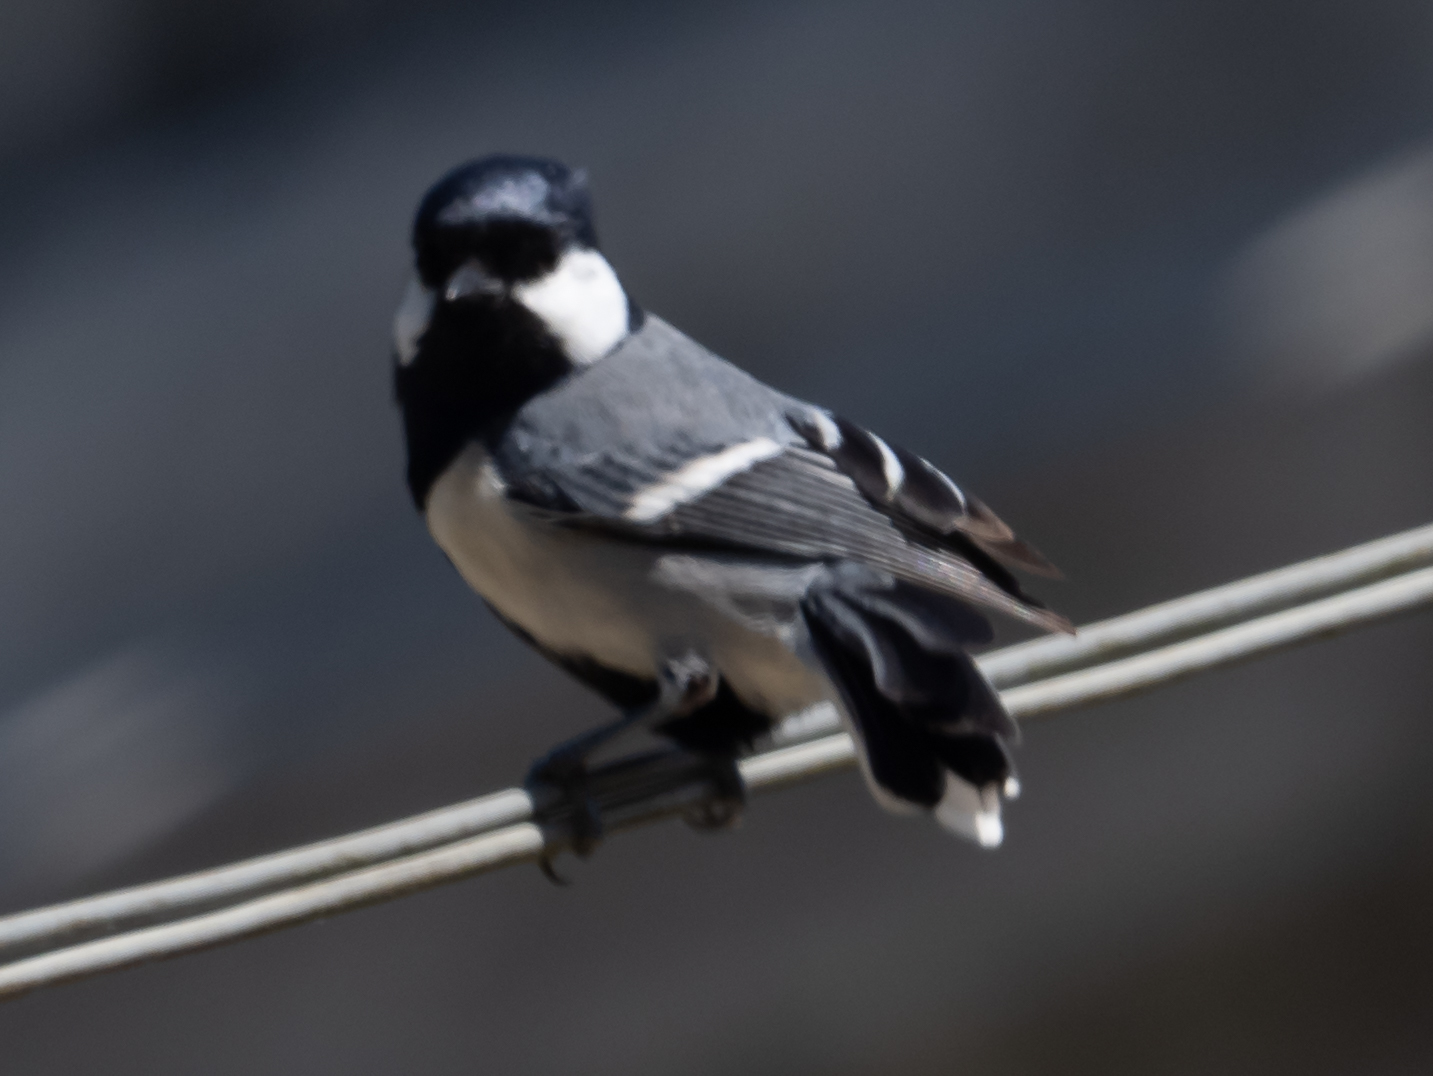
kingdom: Animalia
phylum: Chordata
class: Aves
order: Passeriformes
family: Paridae
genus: Parus
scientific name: Parus cinereus
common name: Cinereous tit
